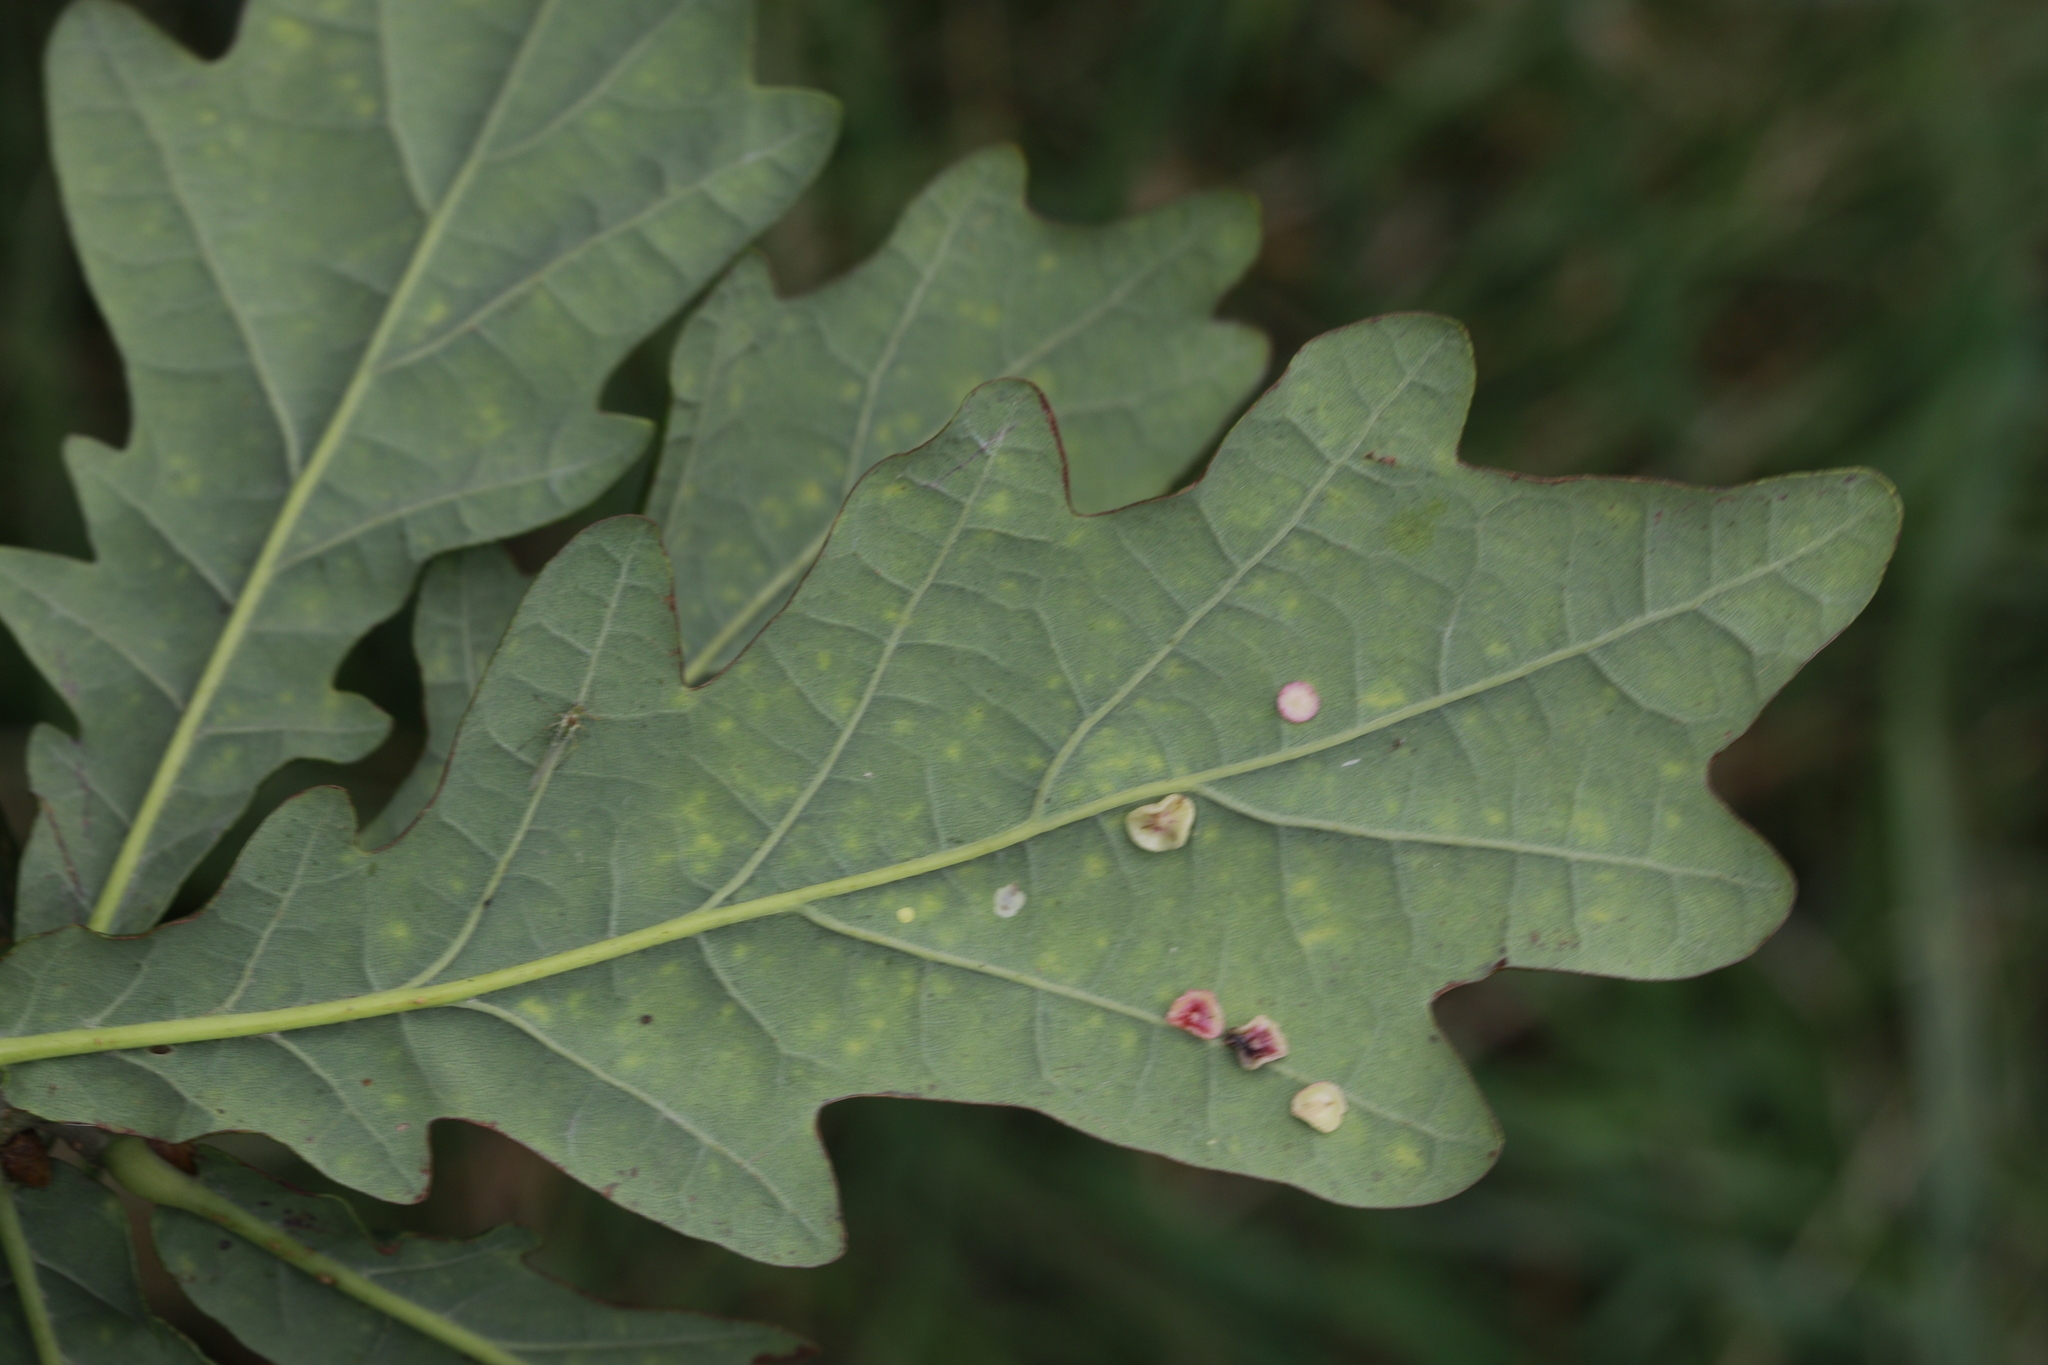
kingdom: Plantae
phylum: Tracheophyta
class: Magnoliopsida
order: Fagales
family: Fagaceae
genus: Quercus
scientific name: Quercus robur
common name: Pedunculate oak
